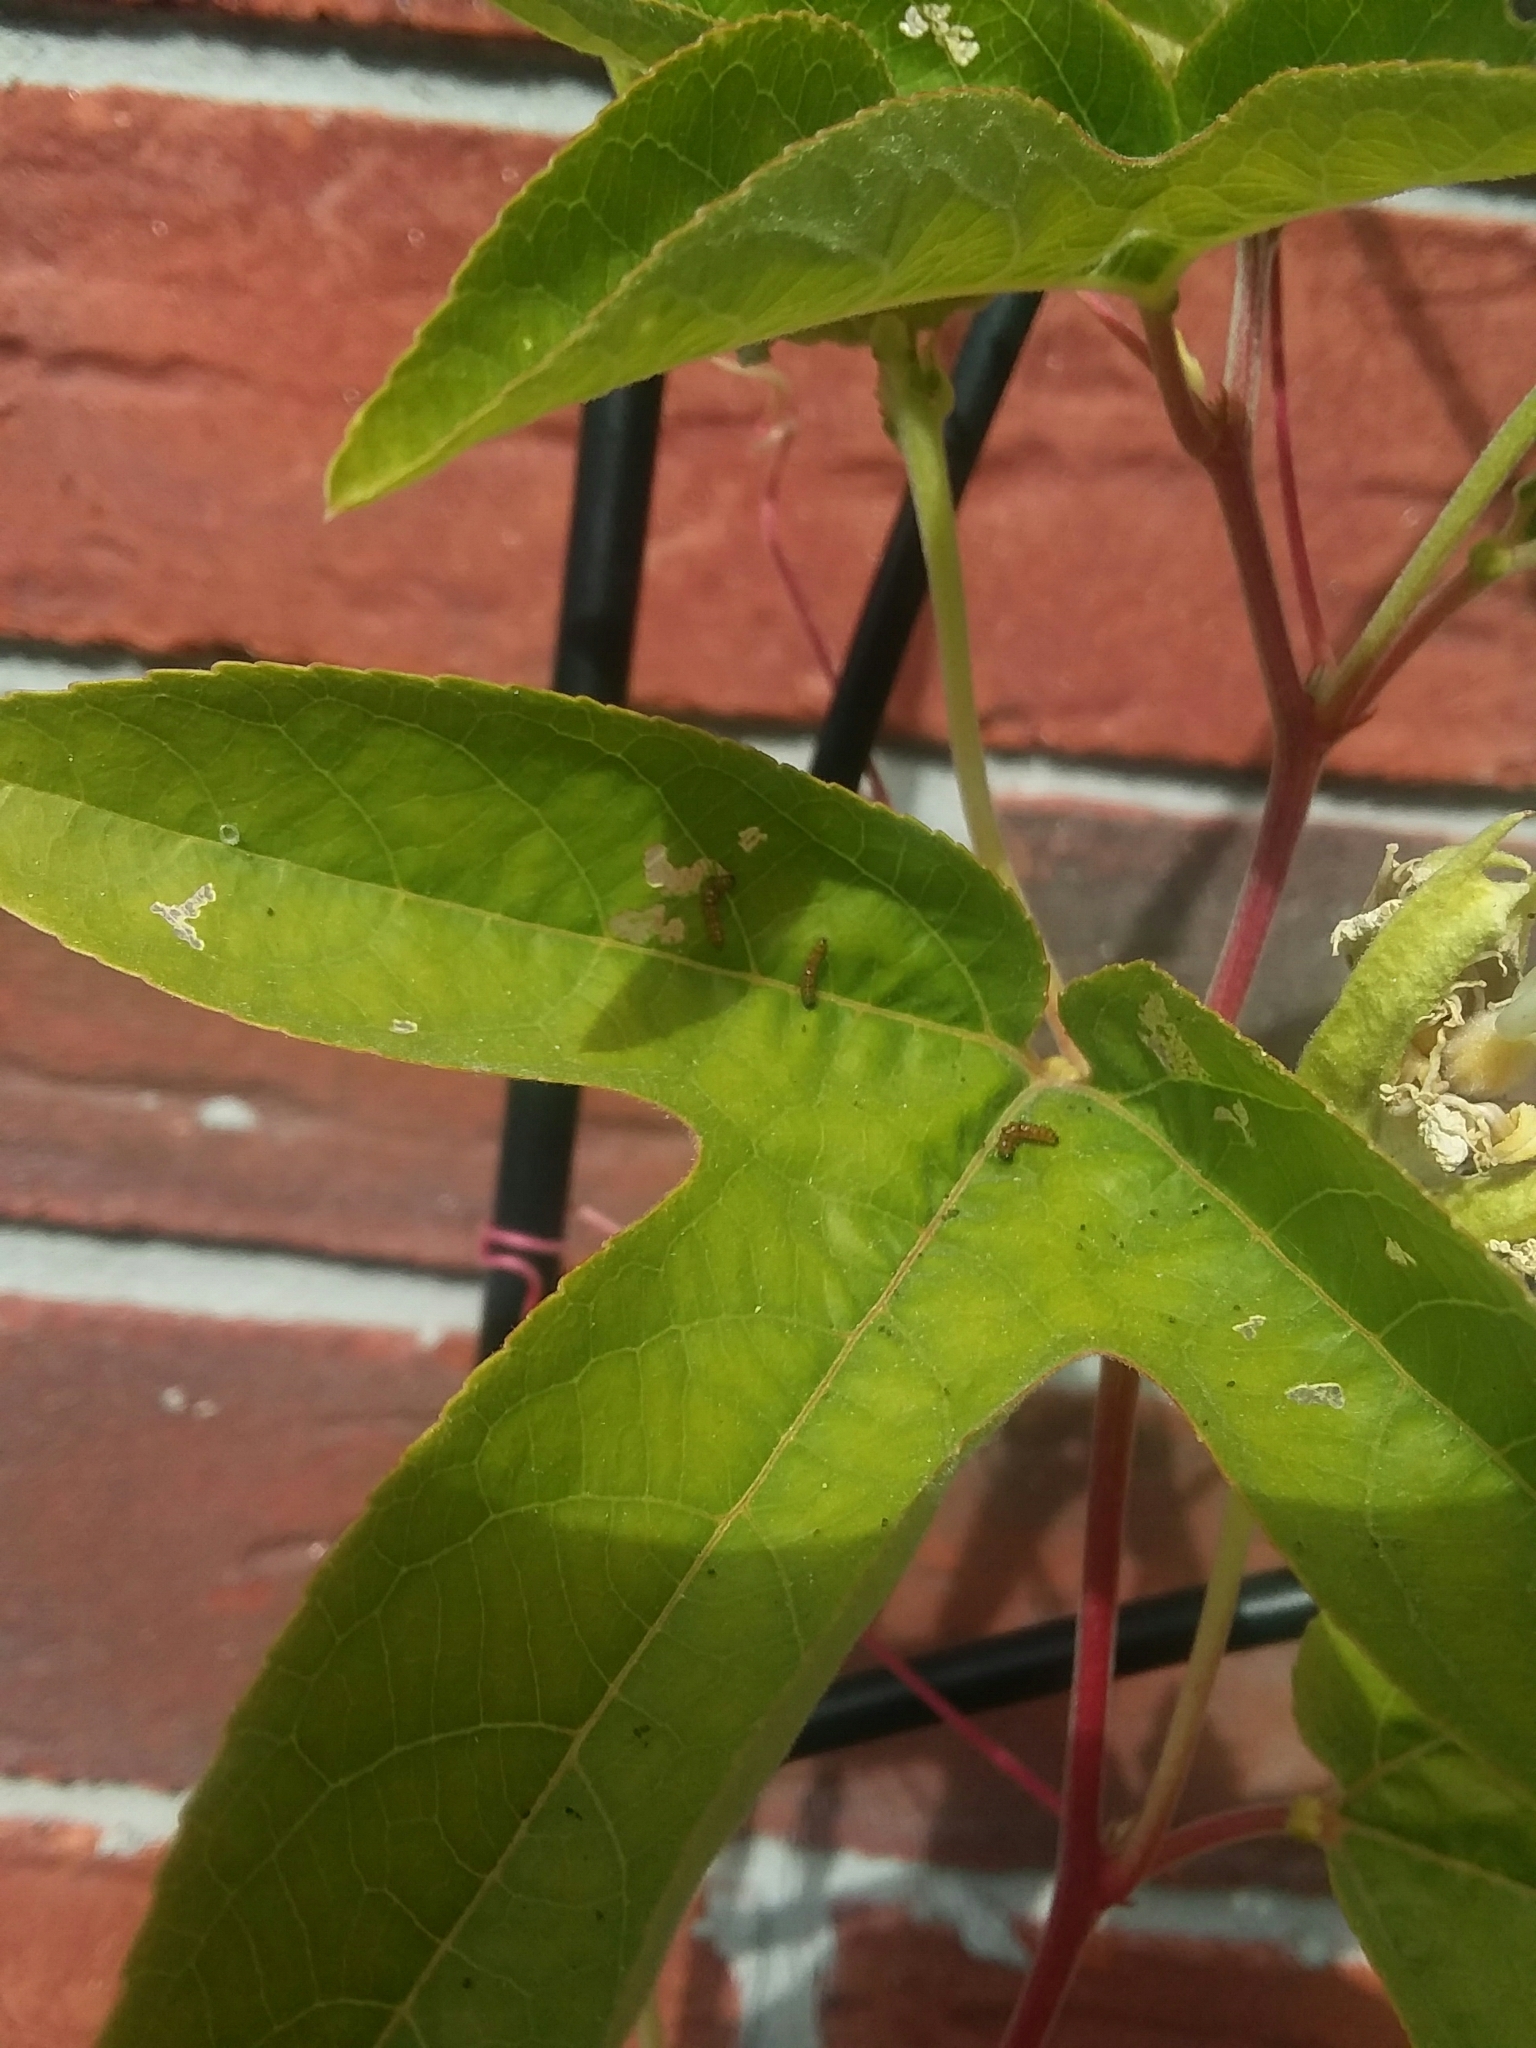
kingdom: Animalia
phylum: Arthropoda
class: Insecta
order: Lepidoptera
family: Nymphalidae
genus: Dione
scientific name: Dione vanillae
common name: Gulf fritillary
